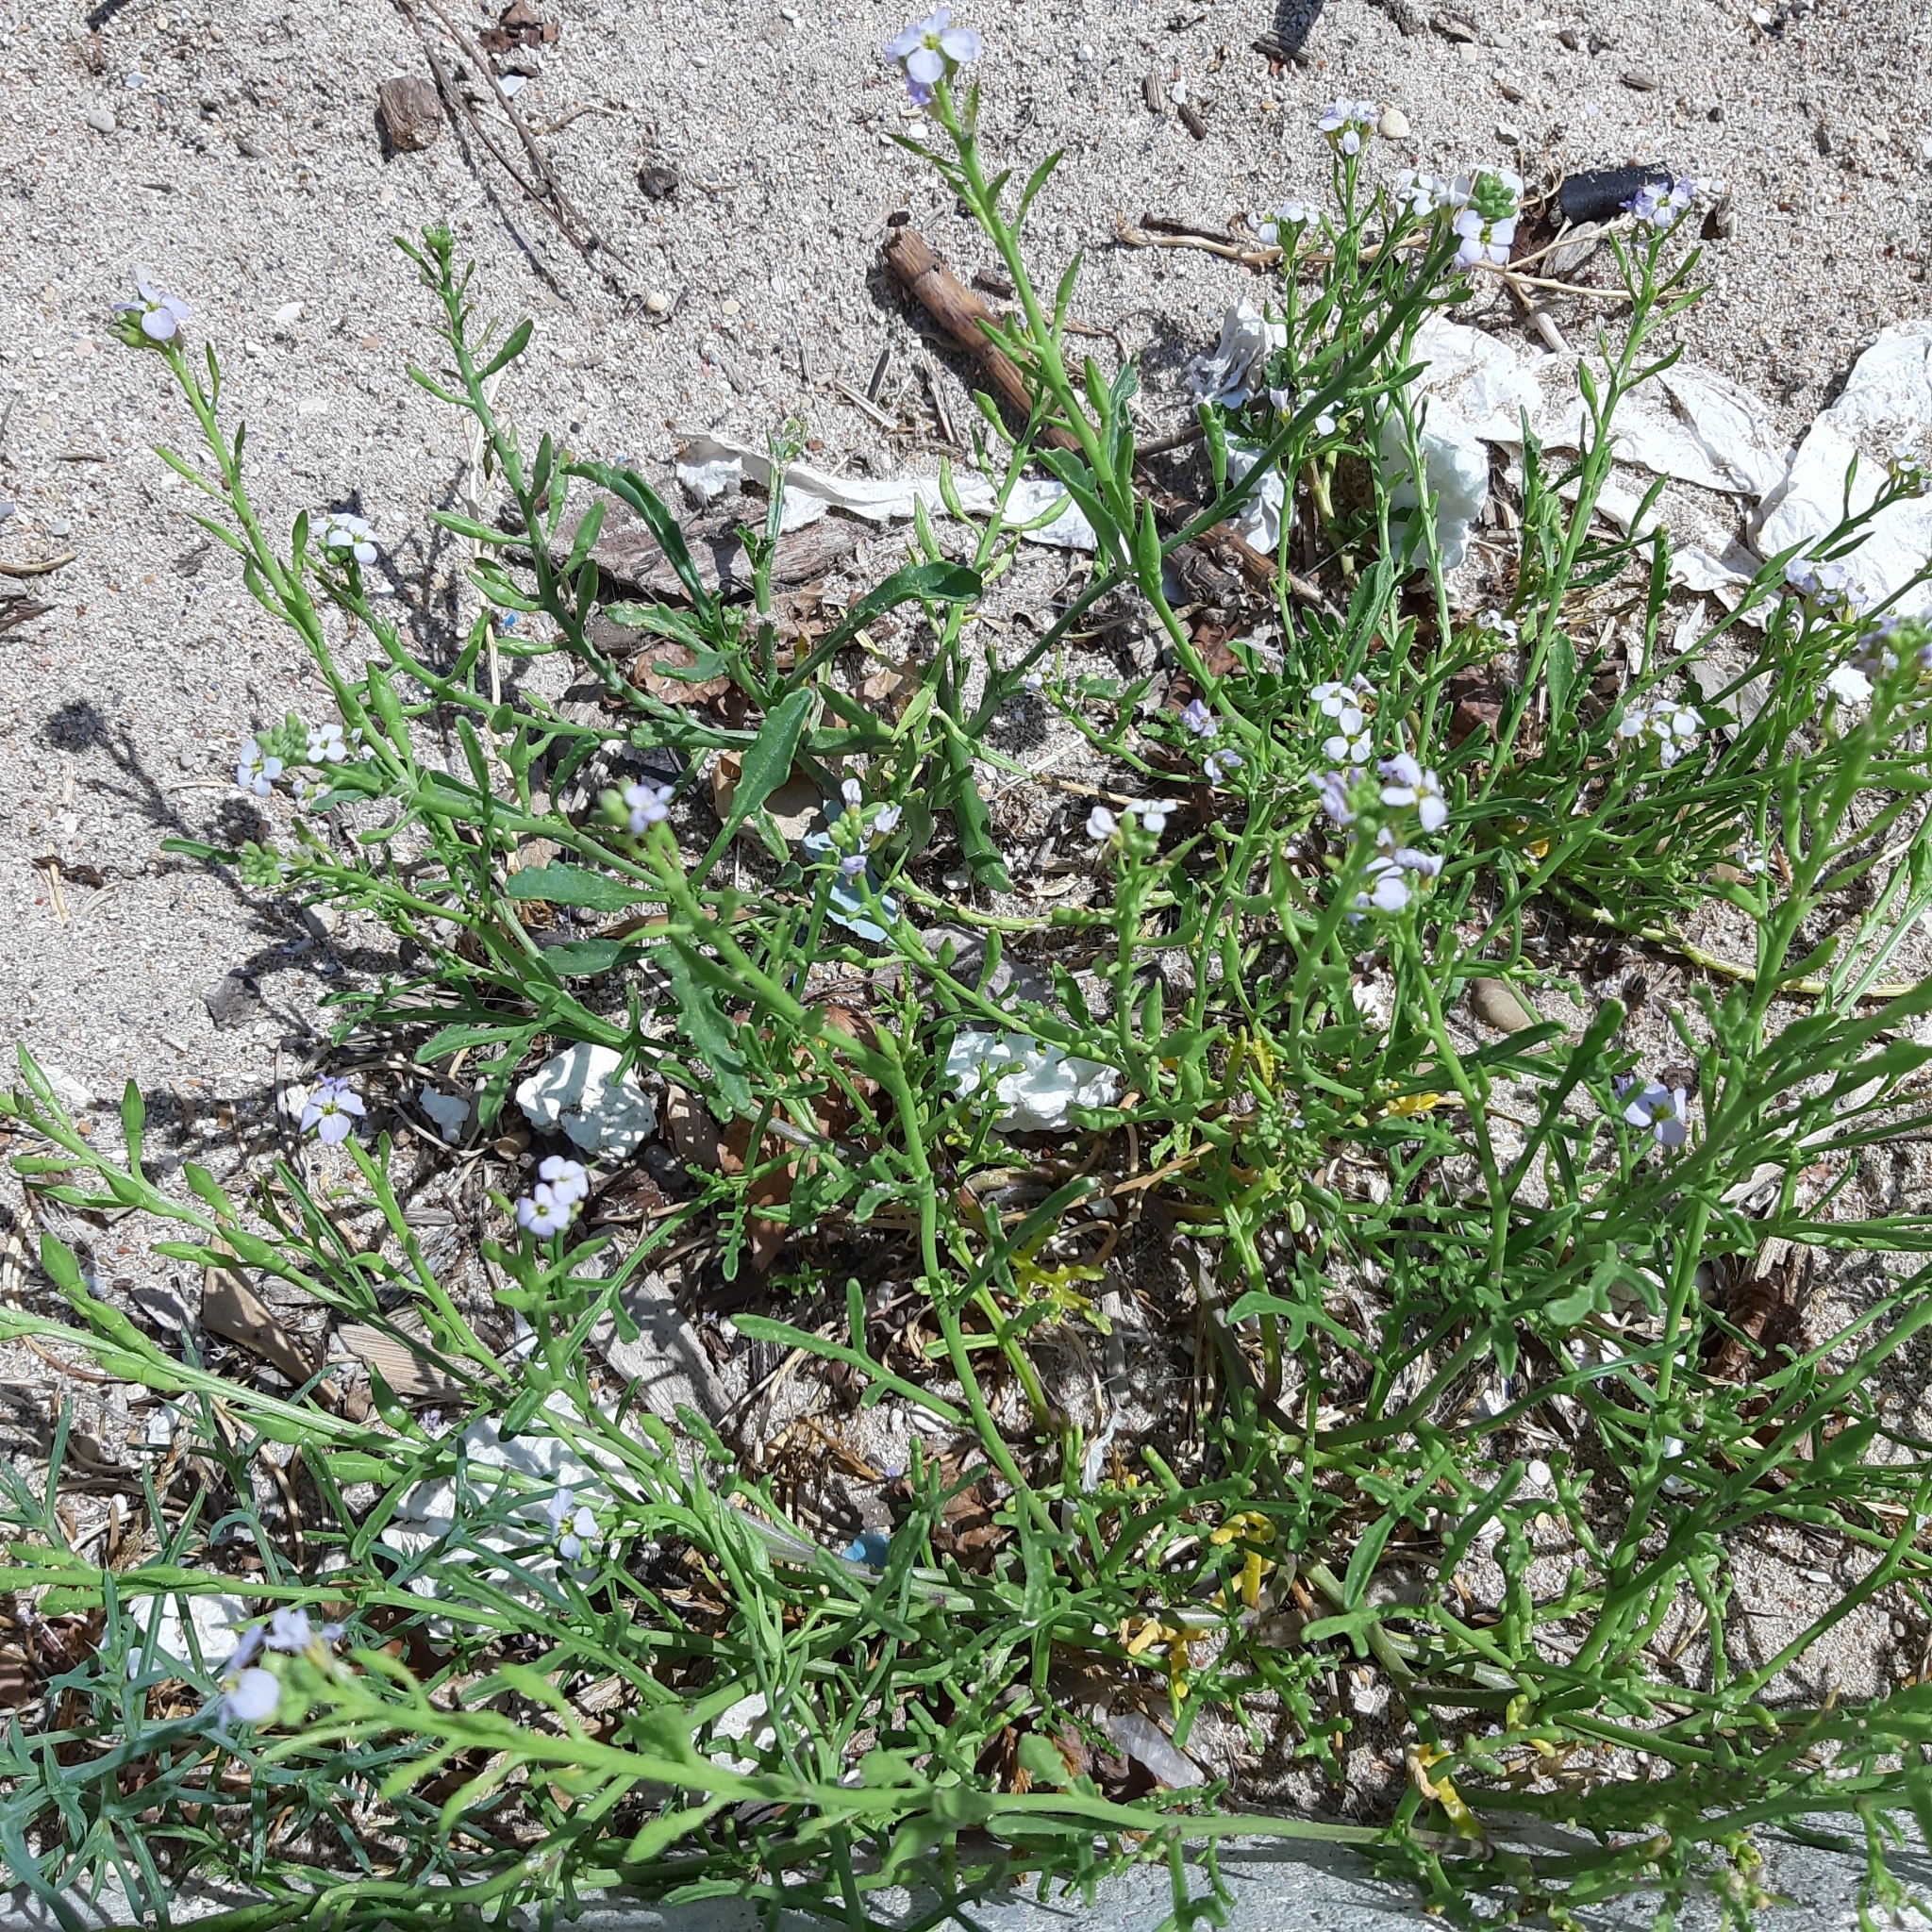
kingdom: Plantae
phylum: Tracheophyta
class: Magnoliopsida
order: Brassicales
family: Brassicaceae
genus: Cakile
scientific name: Cakile maritima
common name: Sea rocket
